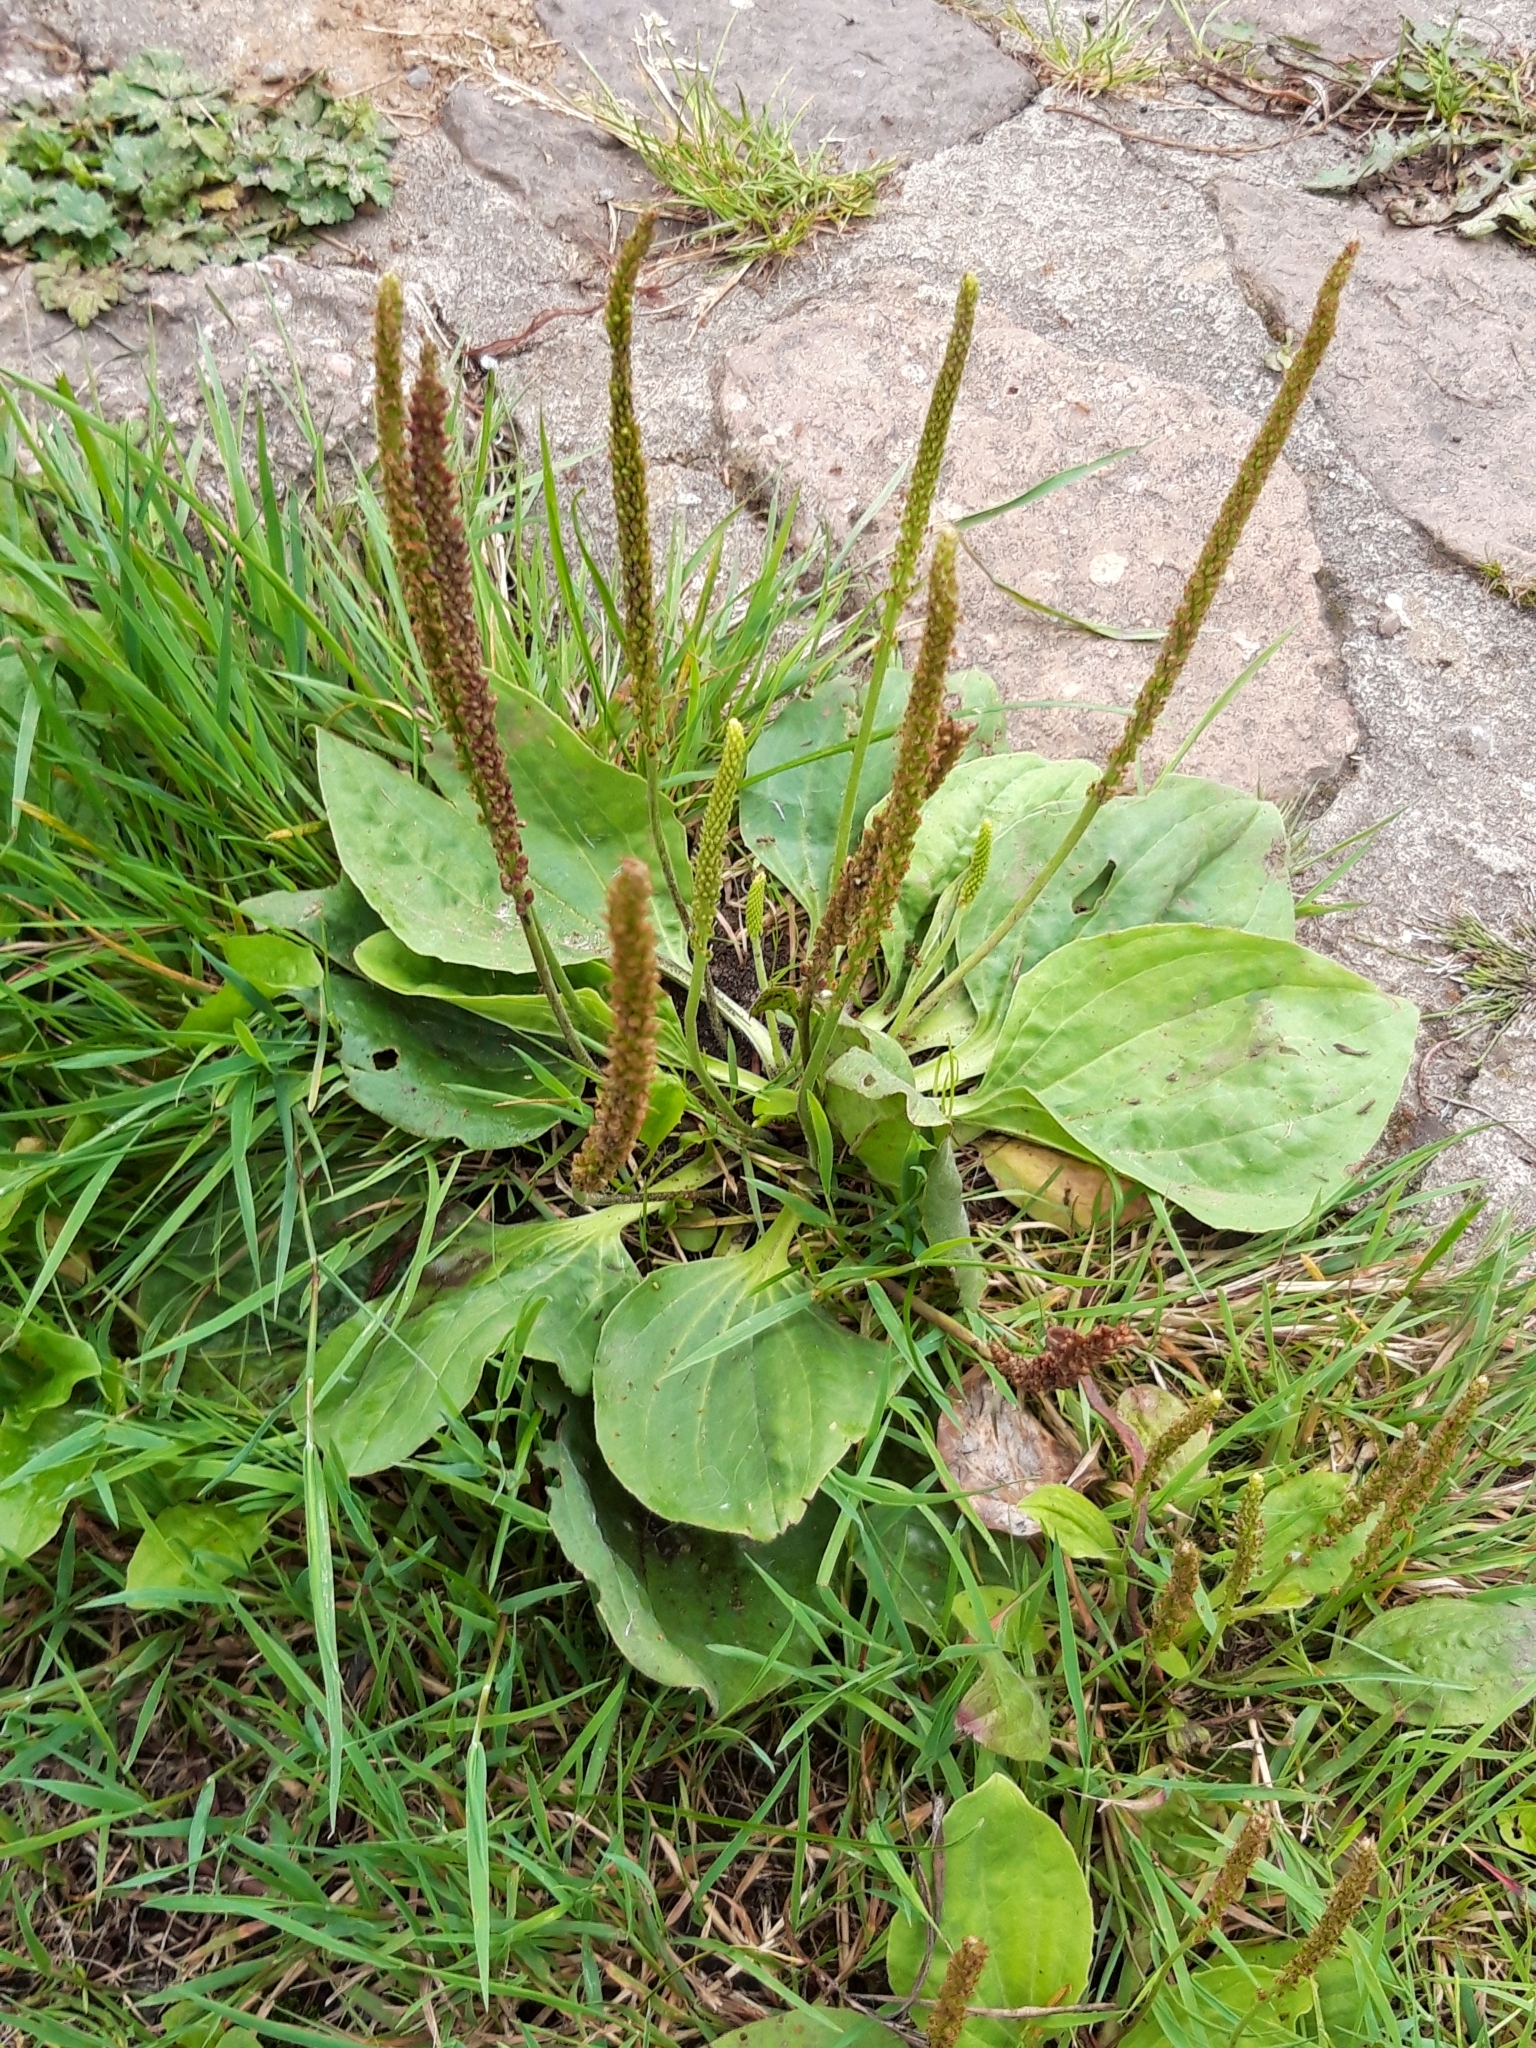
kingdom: Plantae
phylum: Tracheophyta
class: Magnoliopsida
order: Lamiales
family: Plantaginaceae
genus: Plantago
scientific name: Plantago major
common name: Common plantain
